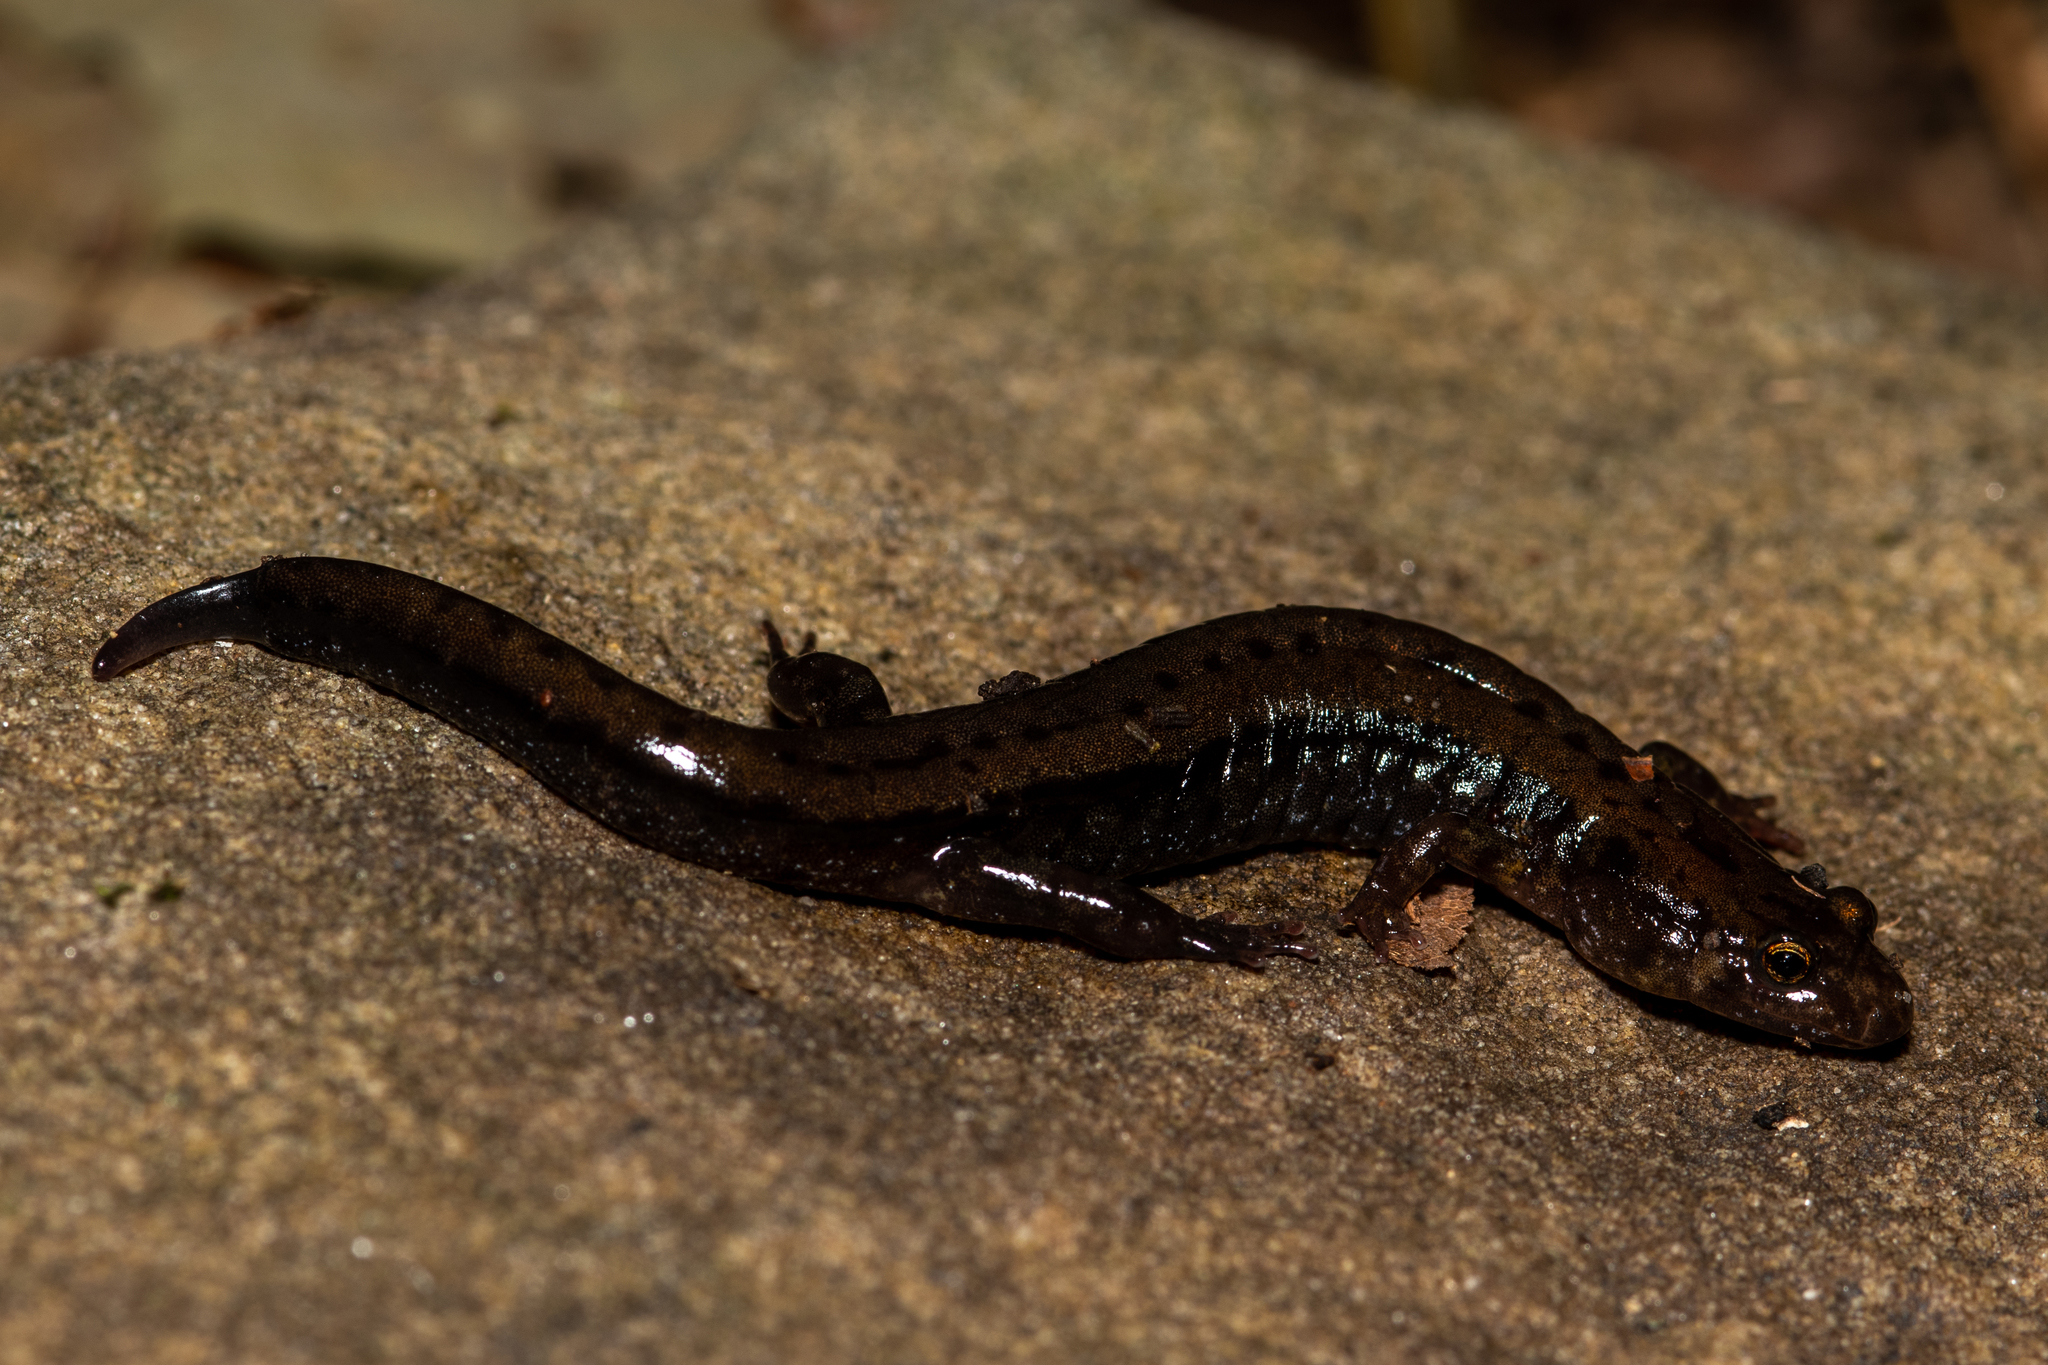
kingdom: Animalia
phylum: Chordata
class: Amphibia
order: Caudata
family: Plethodontidae
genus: Desmognathus
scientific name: Desmognathus ochrophaeus
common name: Allegheny mountain dusky salamander
